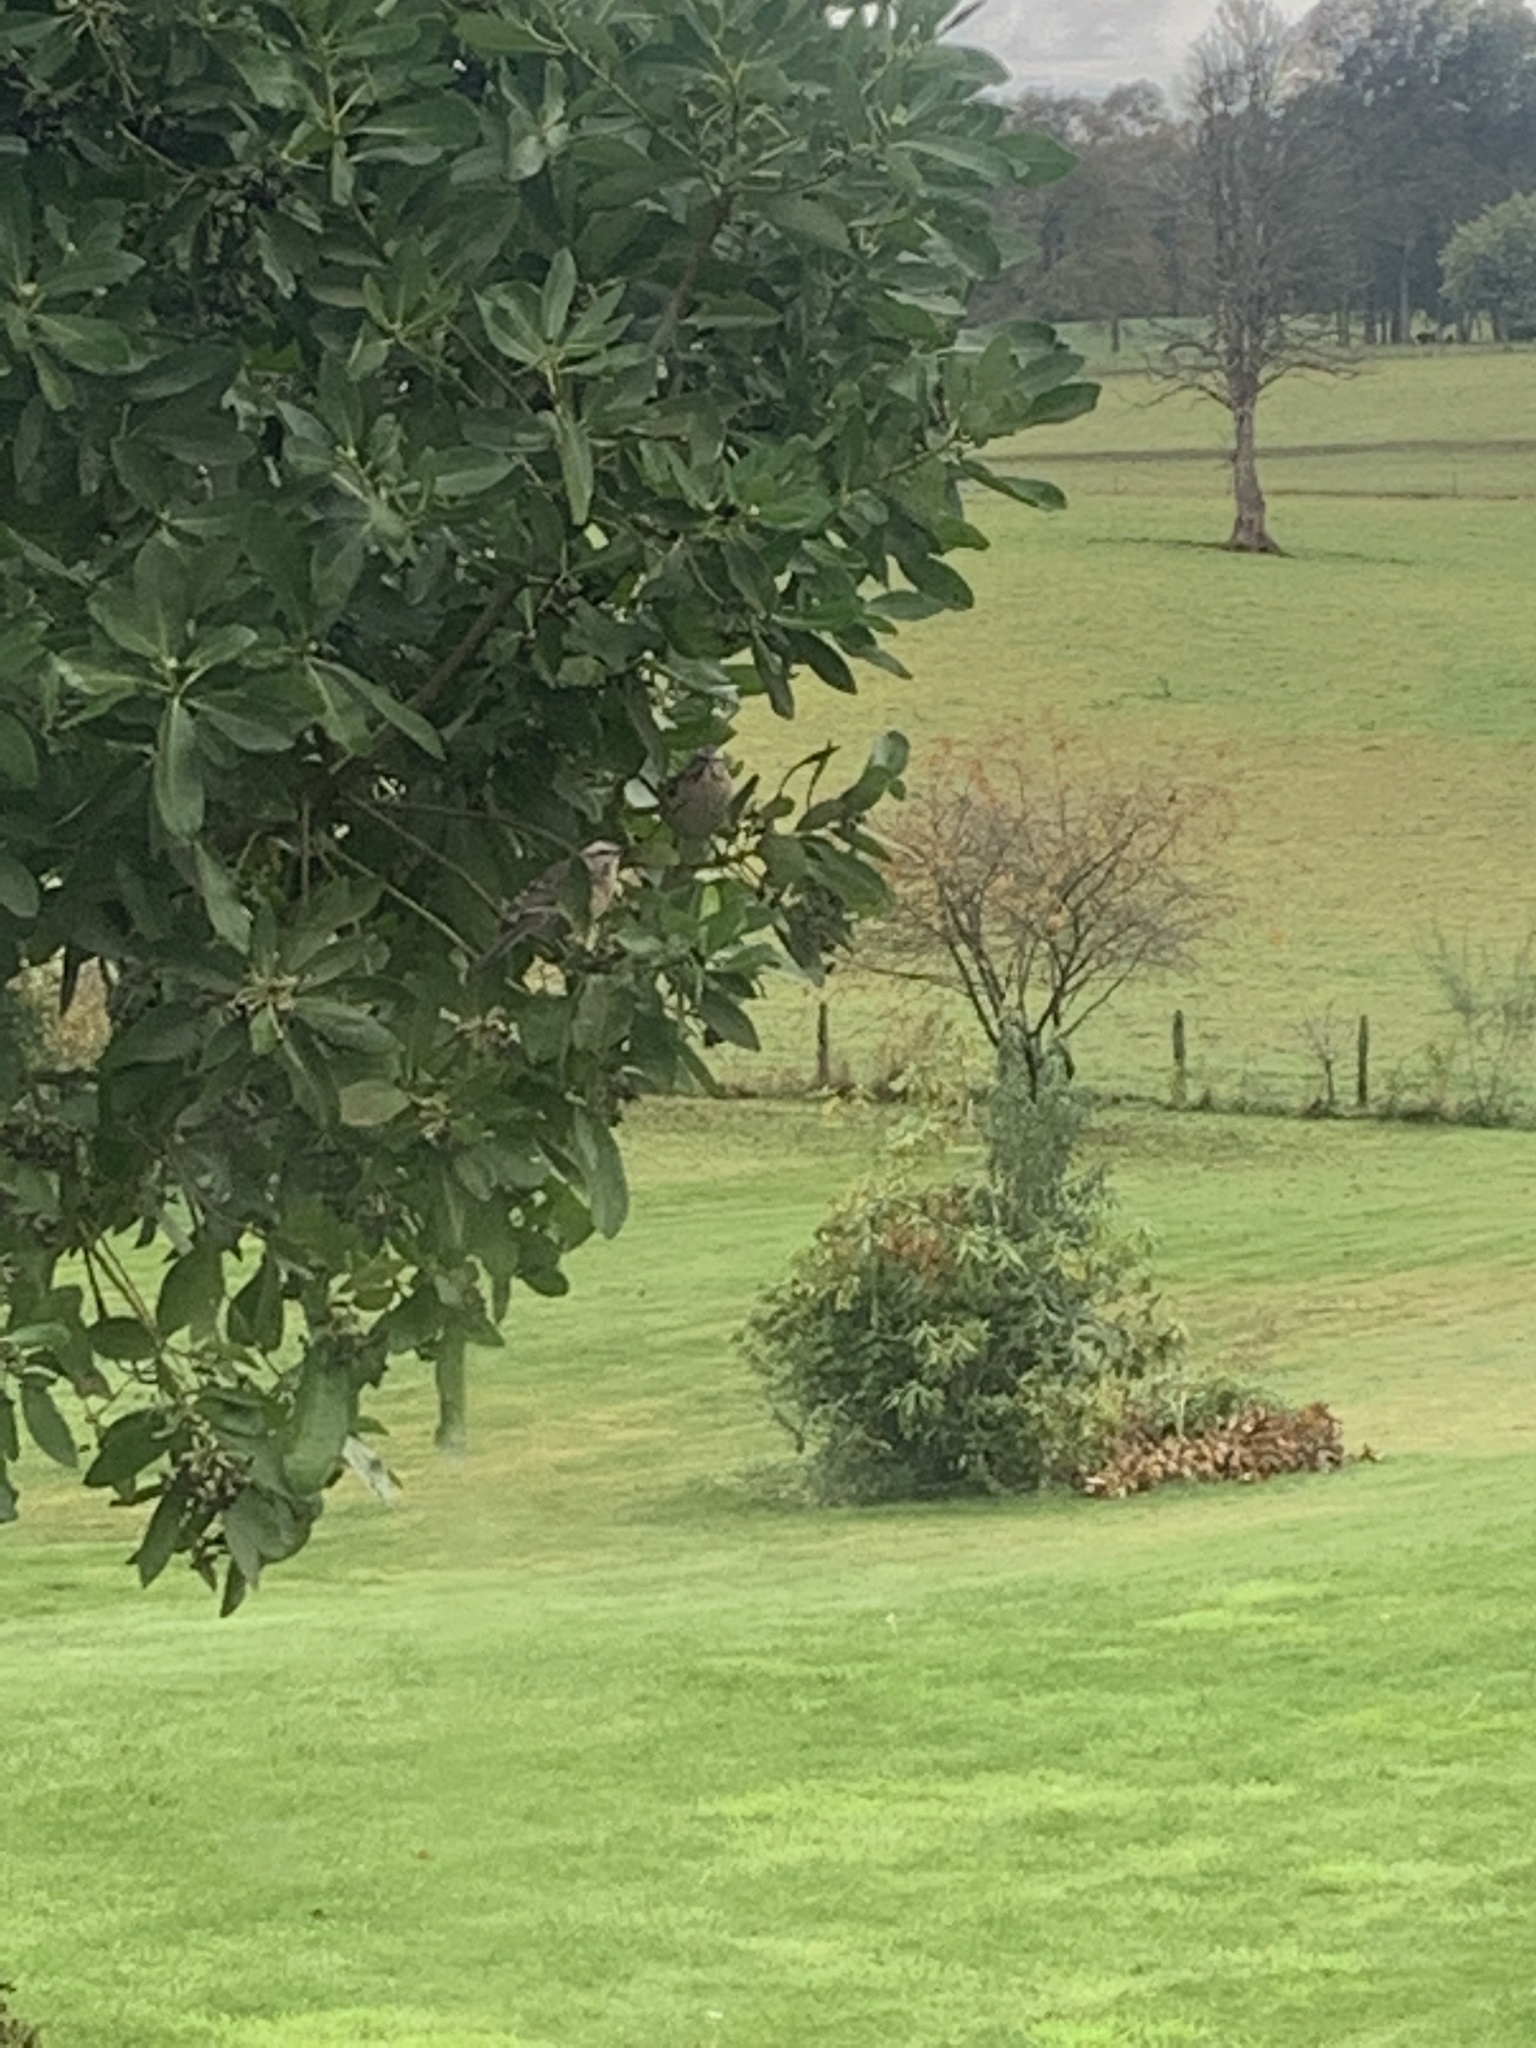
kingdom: Animalia
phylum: Chordata
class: Aves
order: Passeriformes
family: Mimidae
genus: Mimus
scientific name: Mimus thenca
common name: Chilean mockingbird
